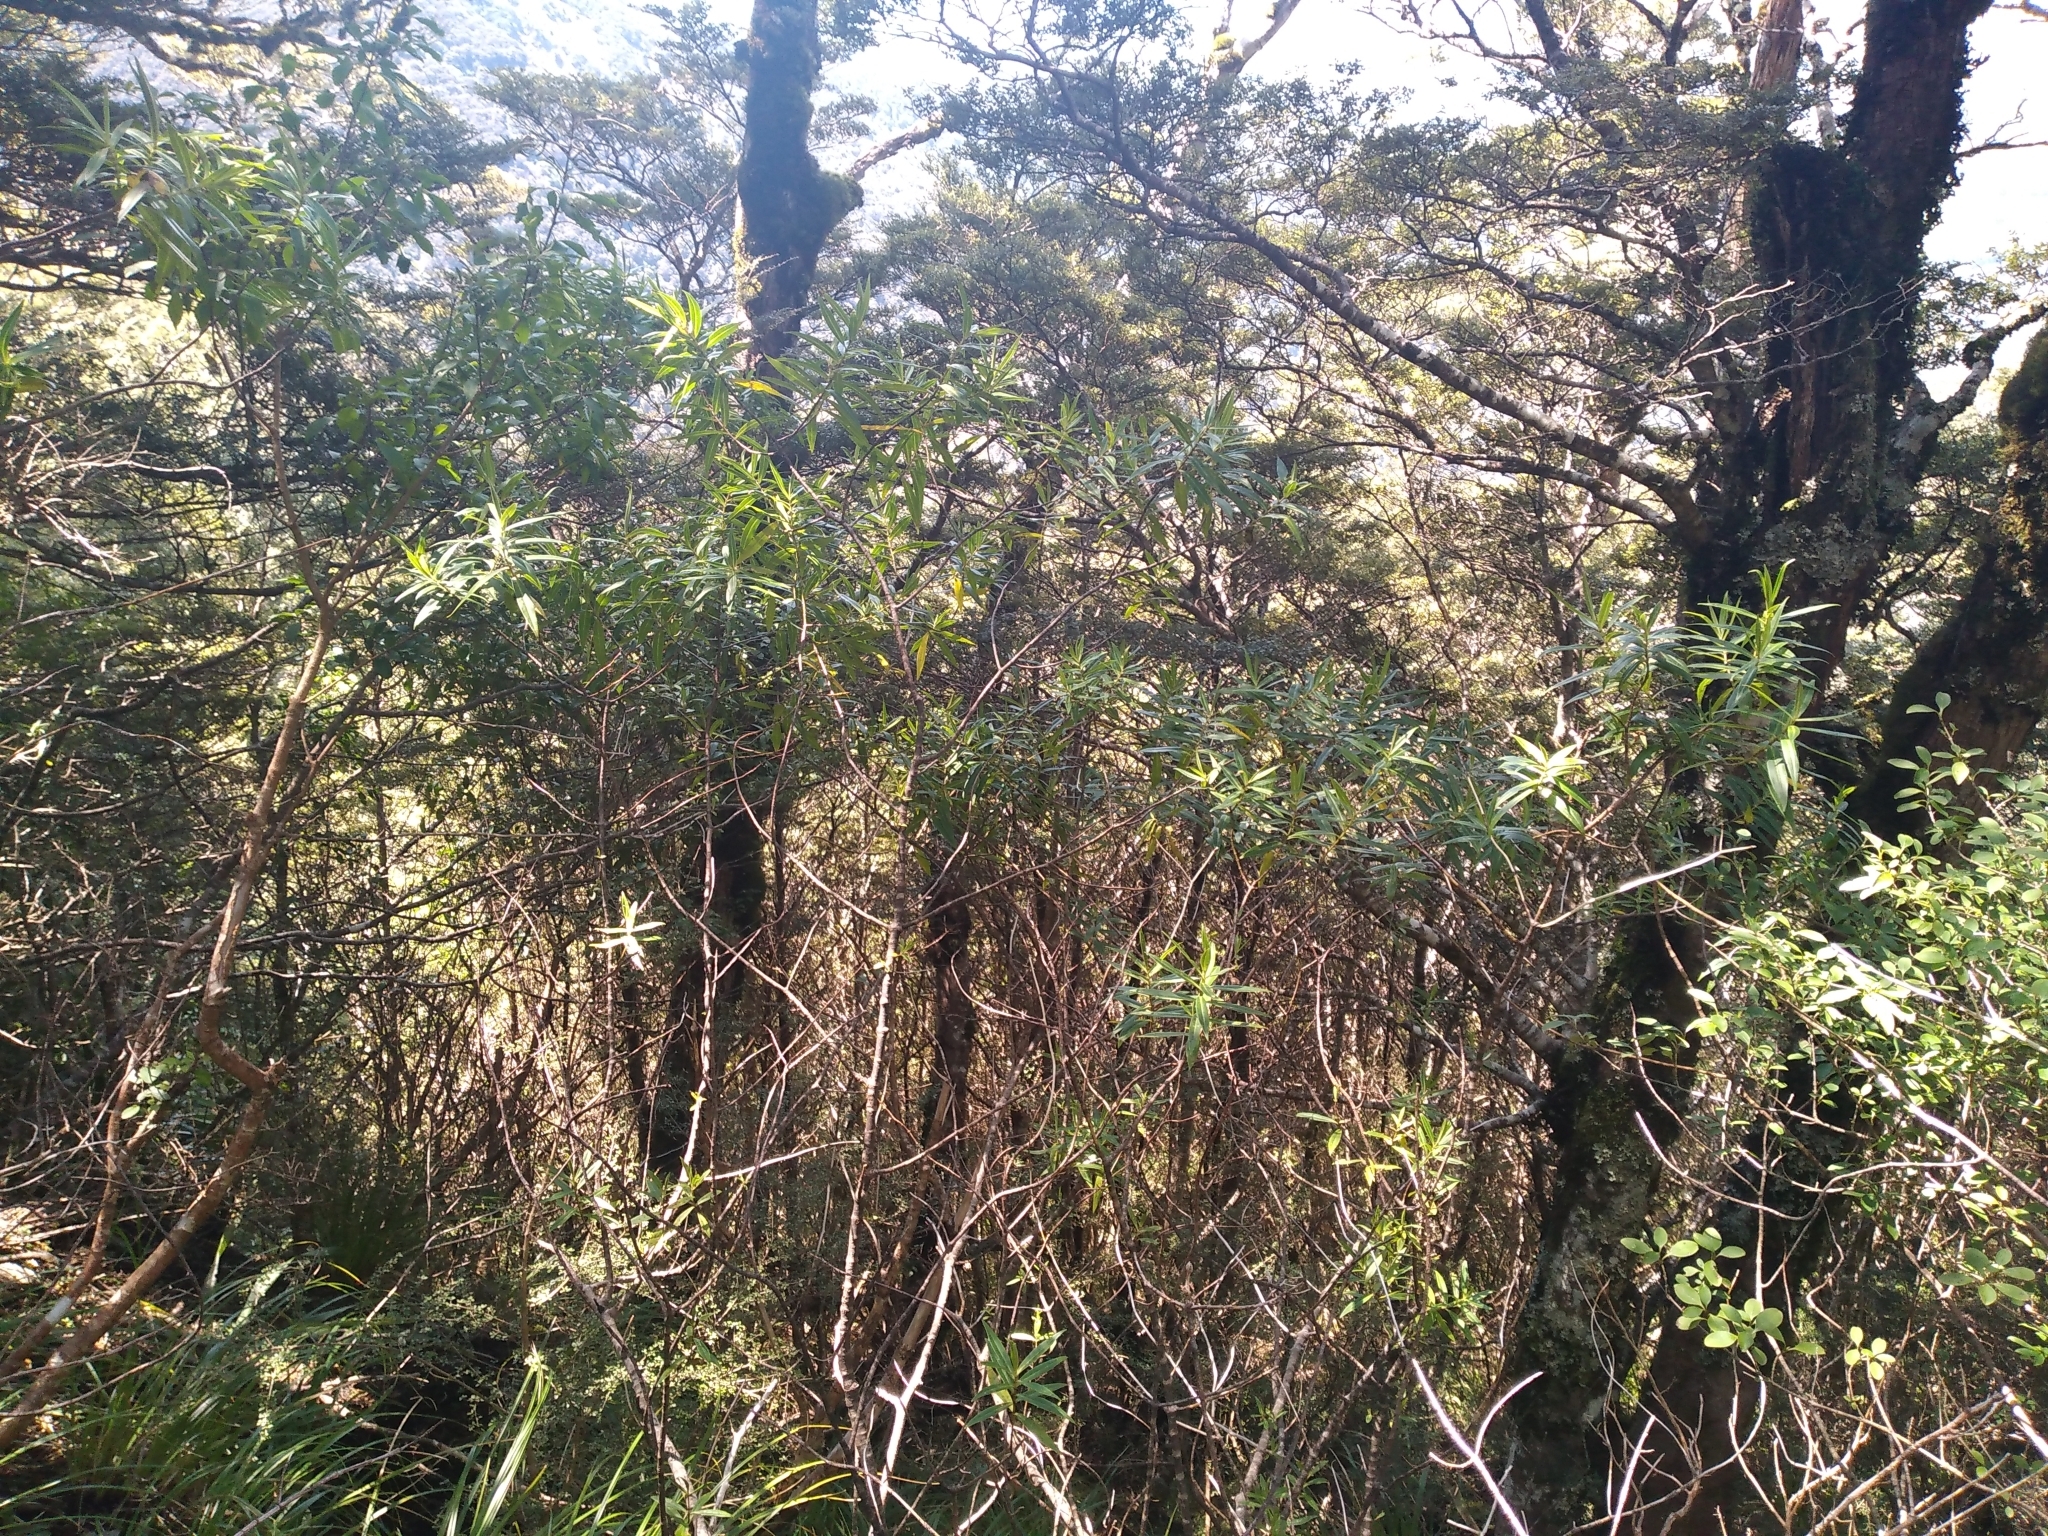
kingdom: Plantae
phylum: Tracheophyta
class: Magnoliopsida
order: Lamiales
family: Plantaginaceae
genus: Veronica
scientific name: Veronica stricta
